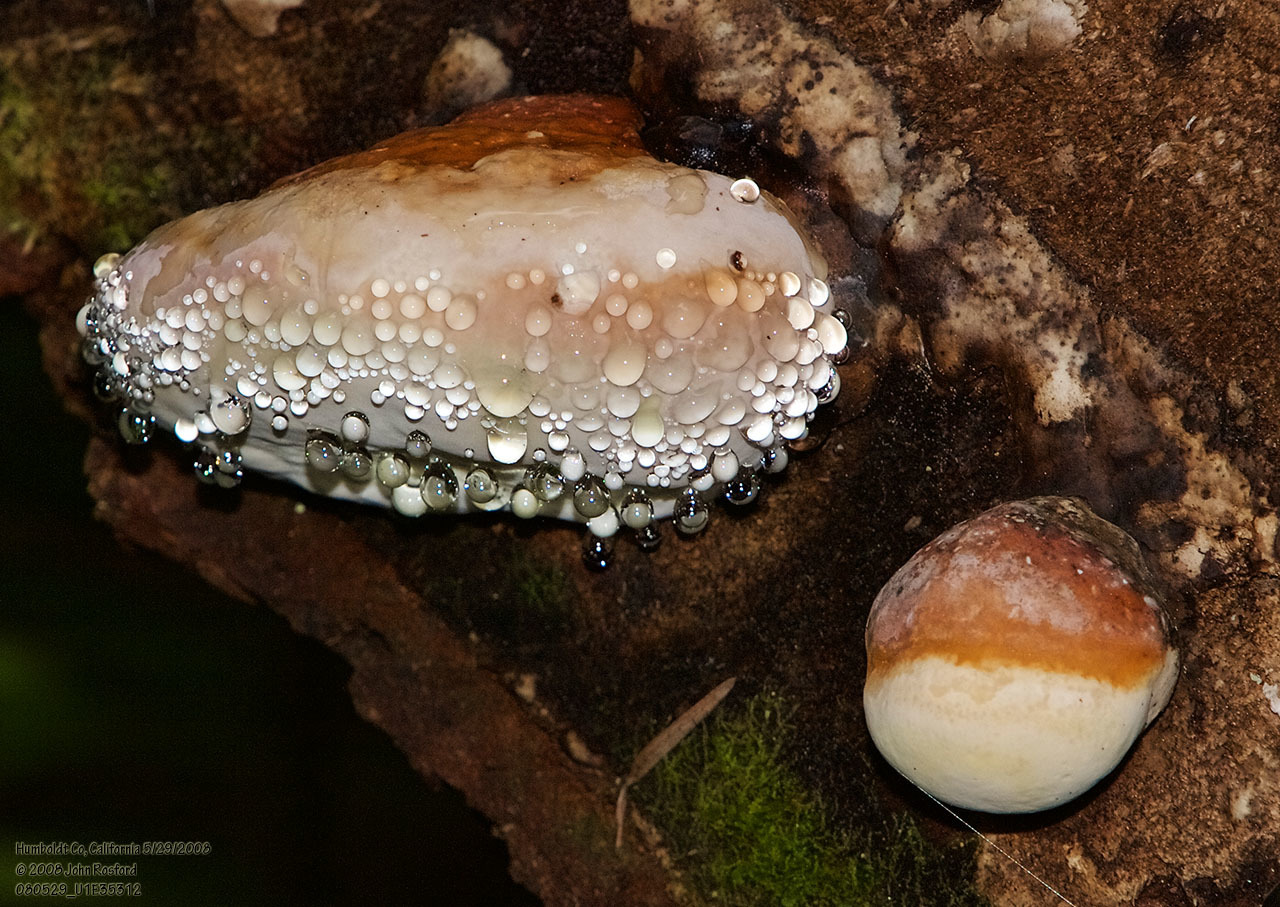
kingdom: Fungi
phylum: Basidiomycota
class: Agaricomycetes
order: Polyporales
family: Fomitopsidaceae
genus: Fomitopsis
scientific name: Fomitopsis mounceae
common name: Northern red belt
